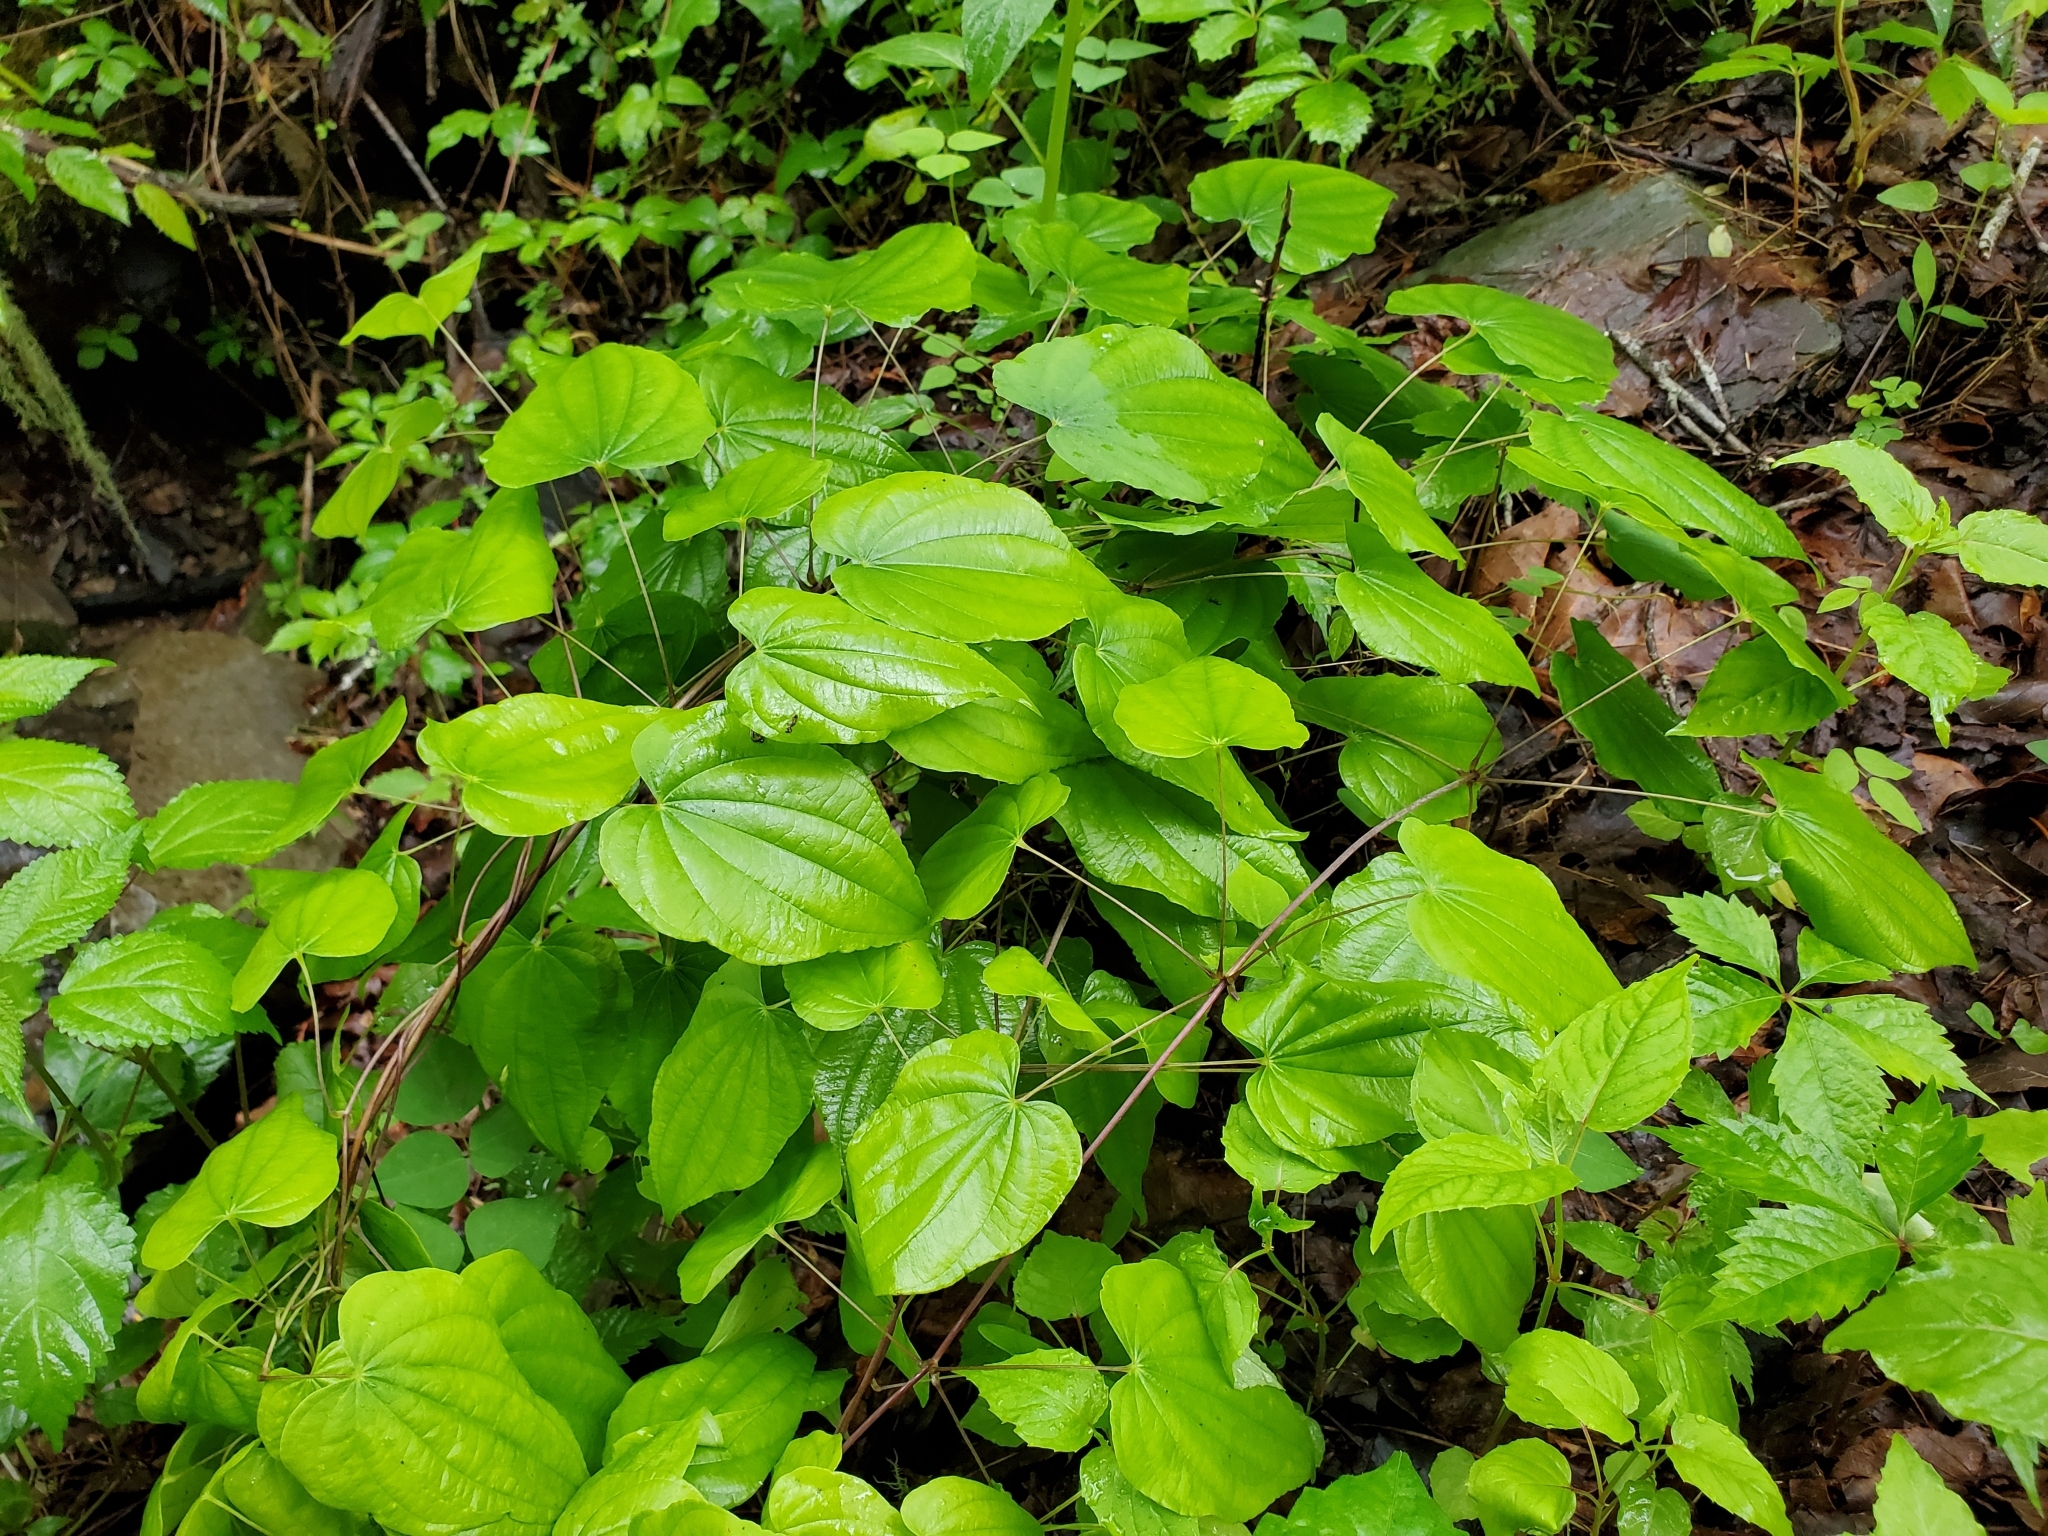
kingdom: Plantae
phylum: Tracheophyta
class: Liliopsida
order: Dioscoreales
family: Dioscoreaceae
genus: Dioscorea
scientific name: Dioscorea villosa
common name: Wild yam
